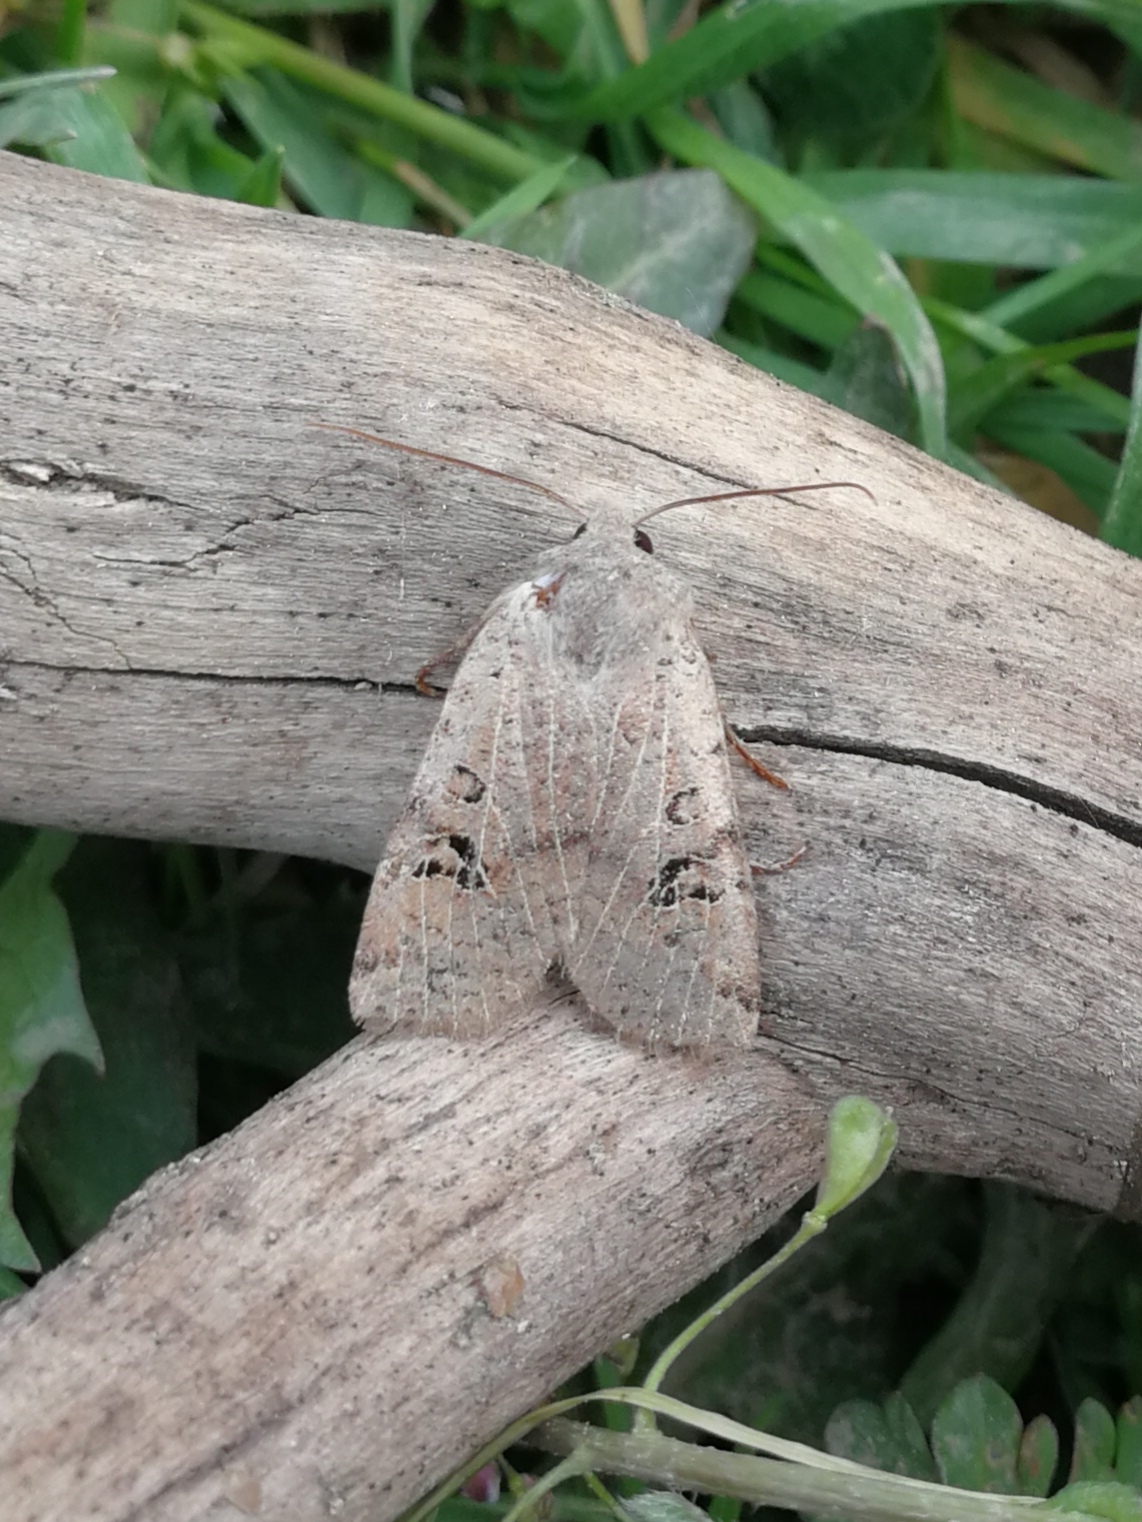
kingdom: Animalia
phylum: Arthropoda
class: Insecta
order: Lepidoptera
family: Noctuidae
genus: Conistra
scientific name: Conistra rubiginosa
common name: Black-spotted chestnut
